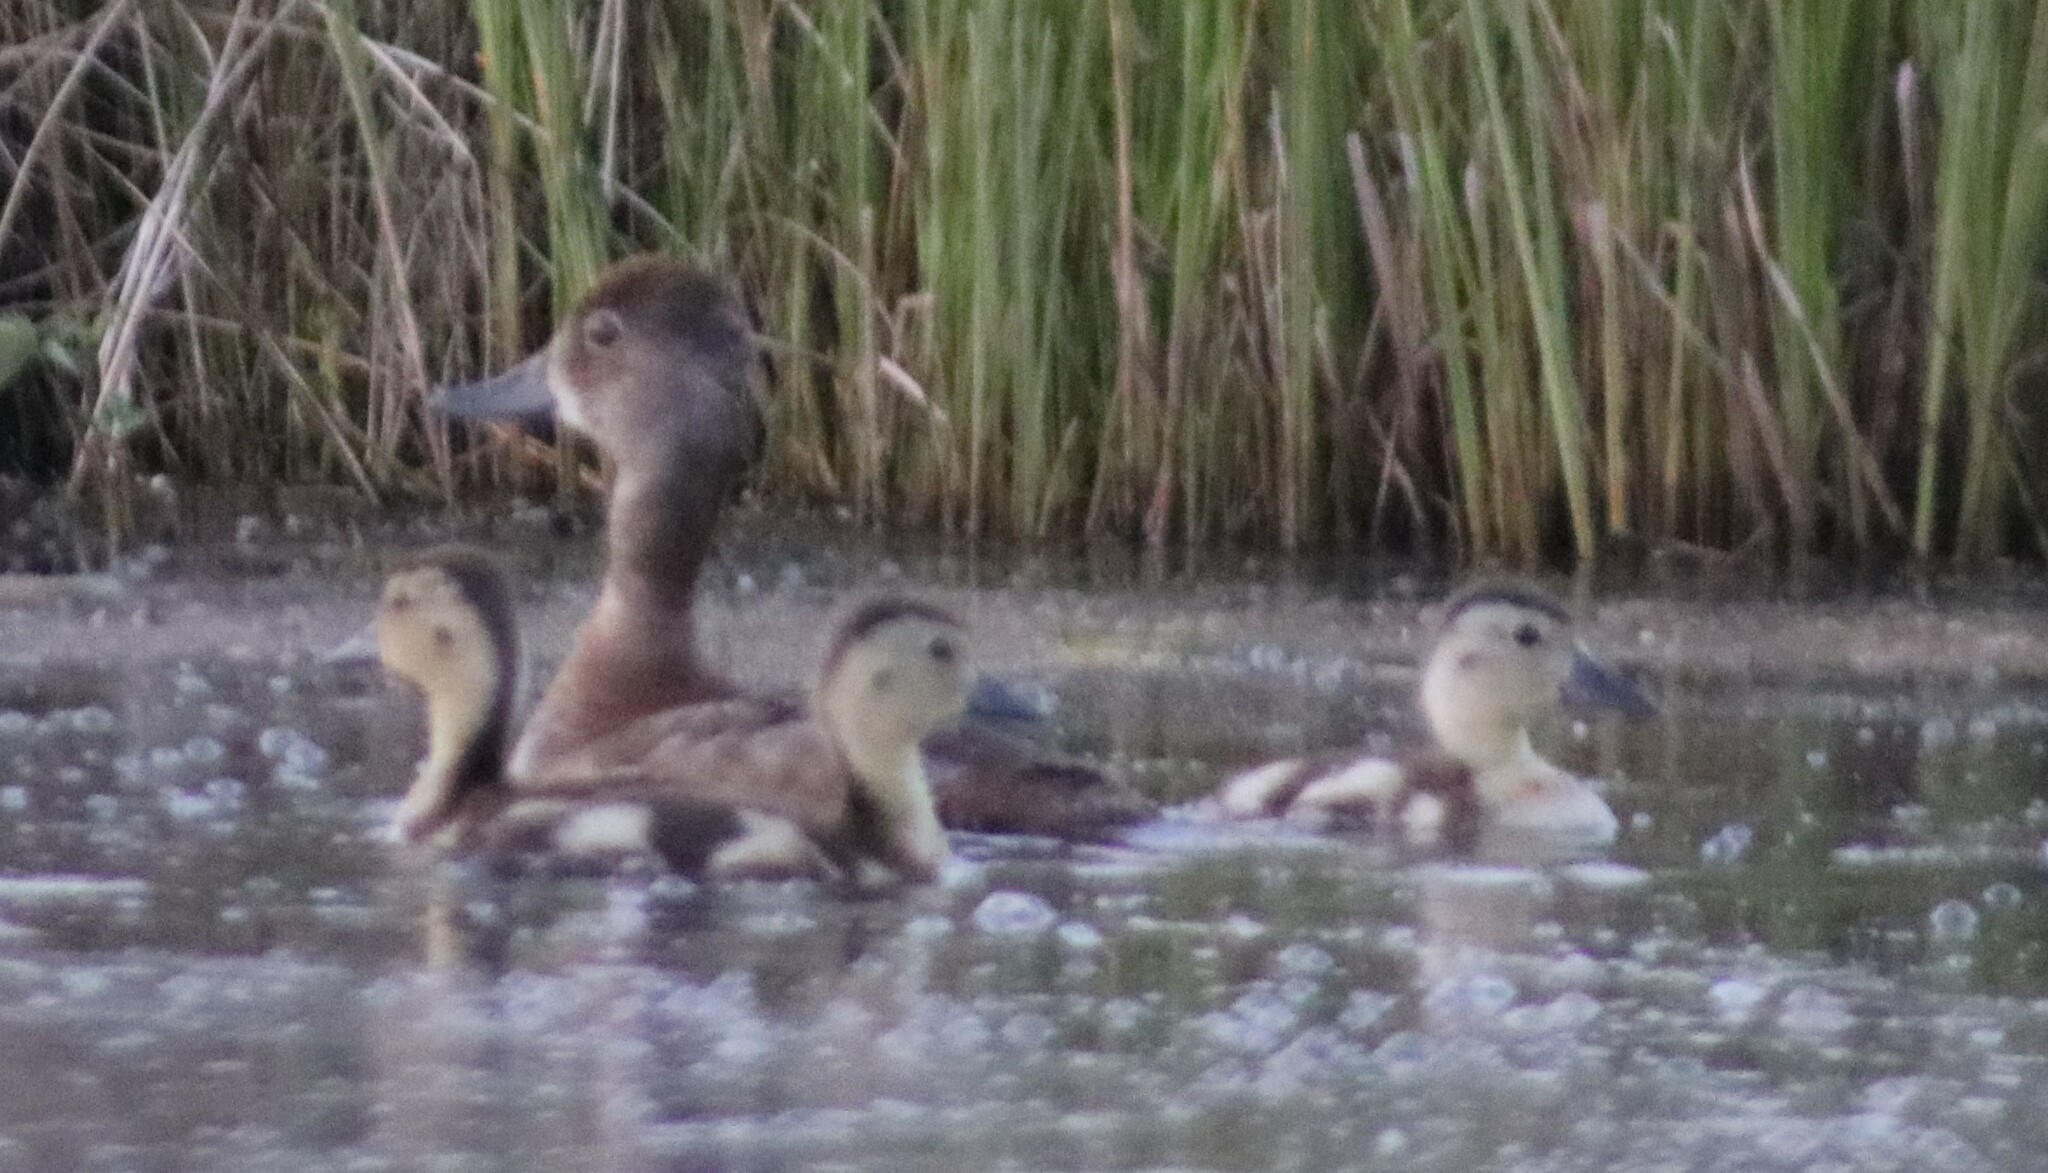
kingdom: Animalia
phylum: Chordata
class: Aves
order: Anseriformes
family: Anatidae
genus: Aythya
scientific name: Aythya collaris
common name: Ring-necked duck
